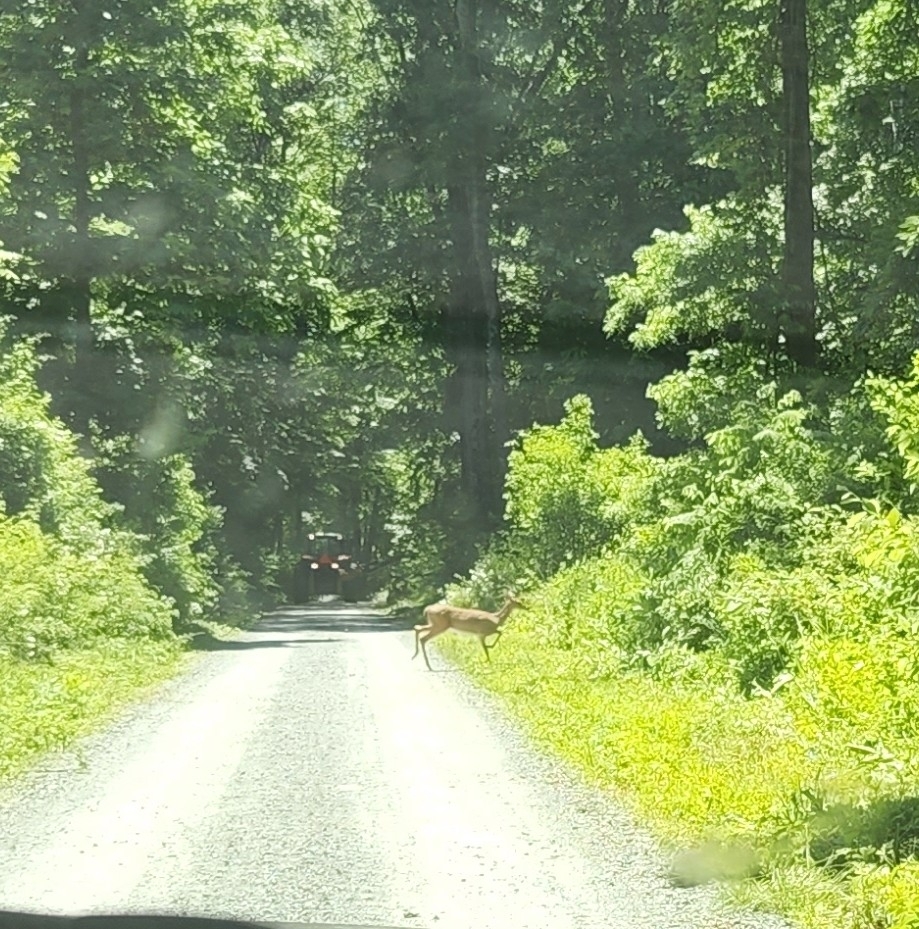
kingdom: Animalia
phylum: Chordata
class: Mammalia
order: Artiodactyla
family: Cervidae
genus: Odocoileus
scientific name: Odocoileus virginianus
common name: White-tailed deer
